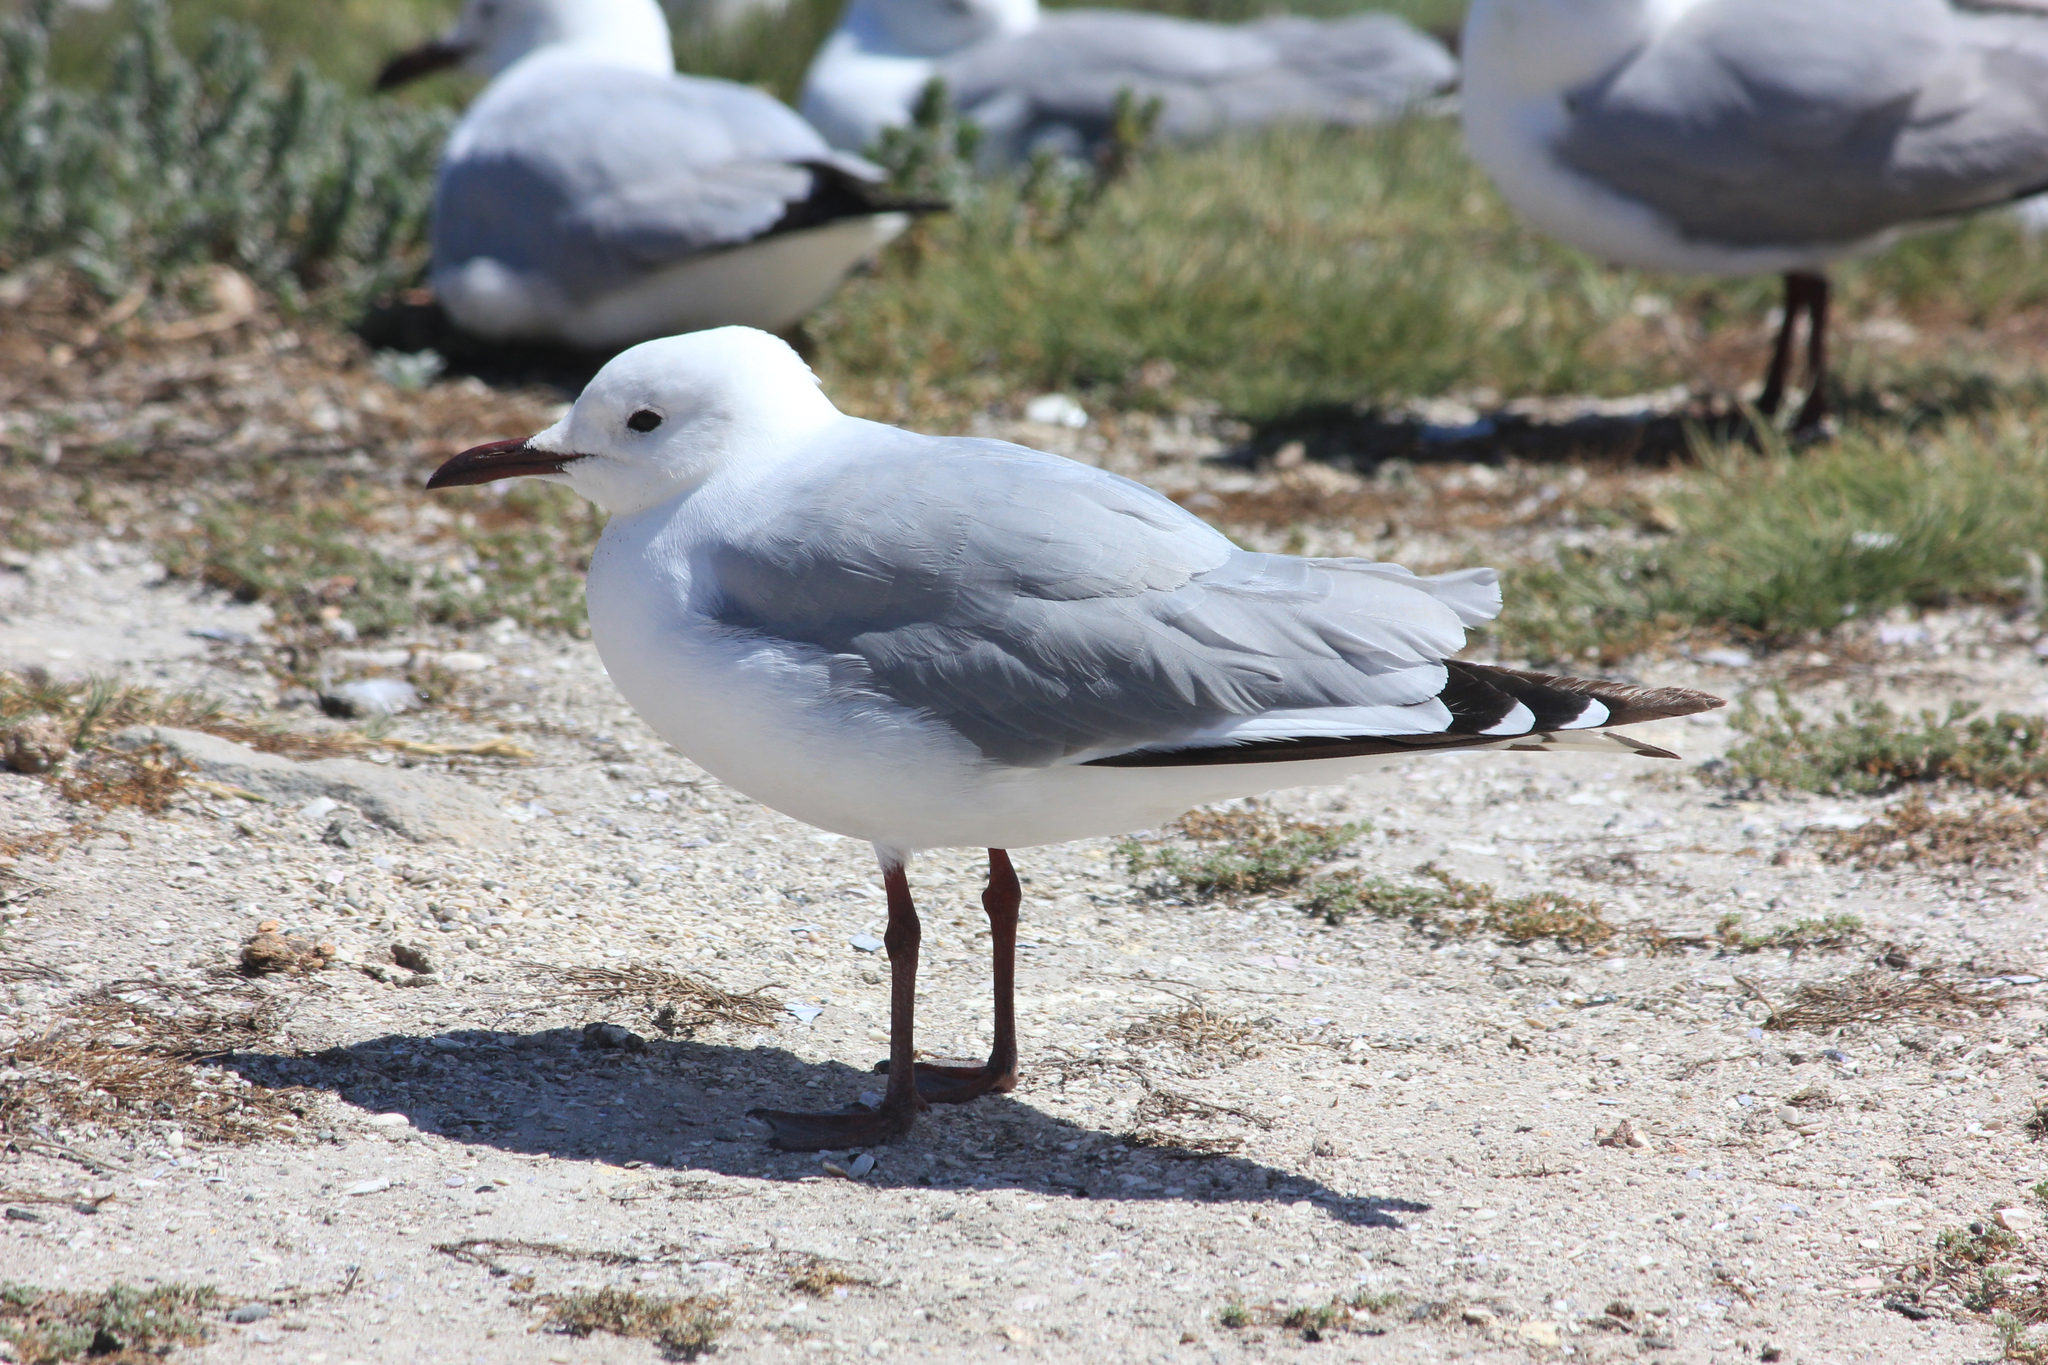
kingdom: Animalia
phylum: Chordata
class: Aves
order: Charadriiformes
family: Laridae
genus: Chroicocephalus
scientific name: Chroicocephalus hartlaubii
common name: Hartlaub's gull
